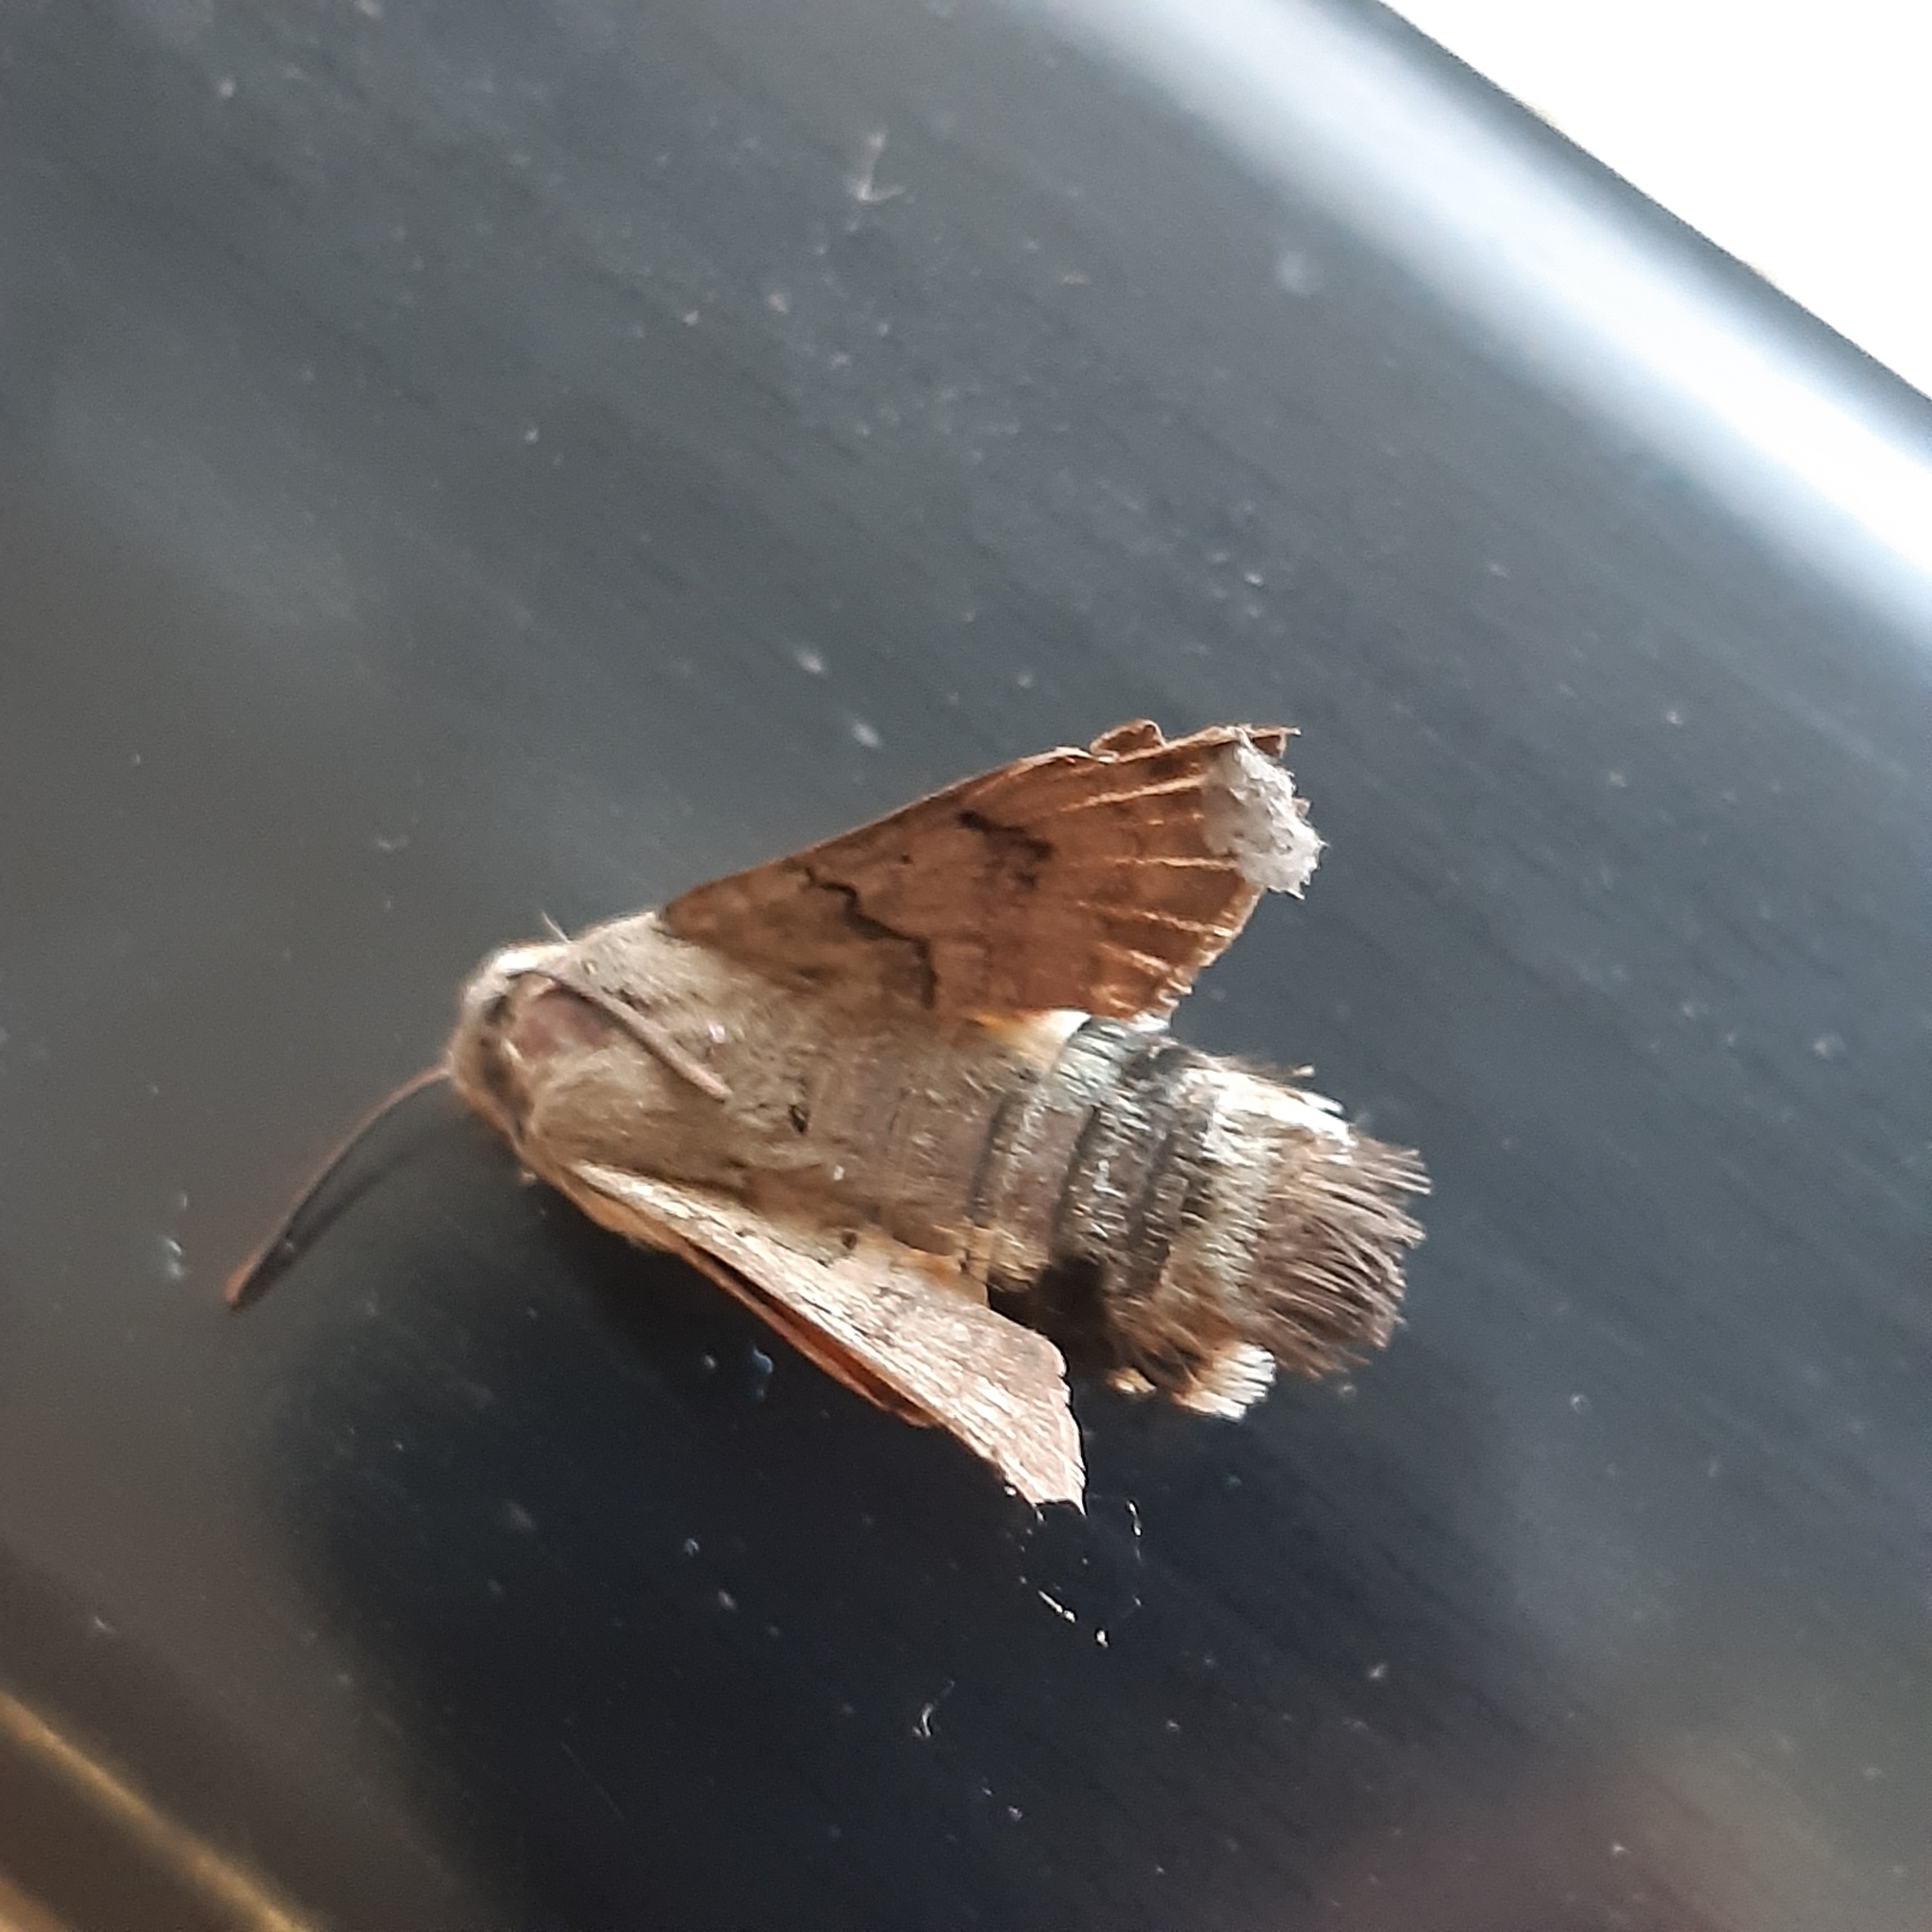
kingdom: Animalia
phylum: Arthropoda
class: Insecta
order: Lepidoptera
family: Sphingidae
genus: Macroglossum
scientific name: Macroglossum stellatarum
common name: Humming-bird hawk-moth
